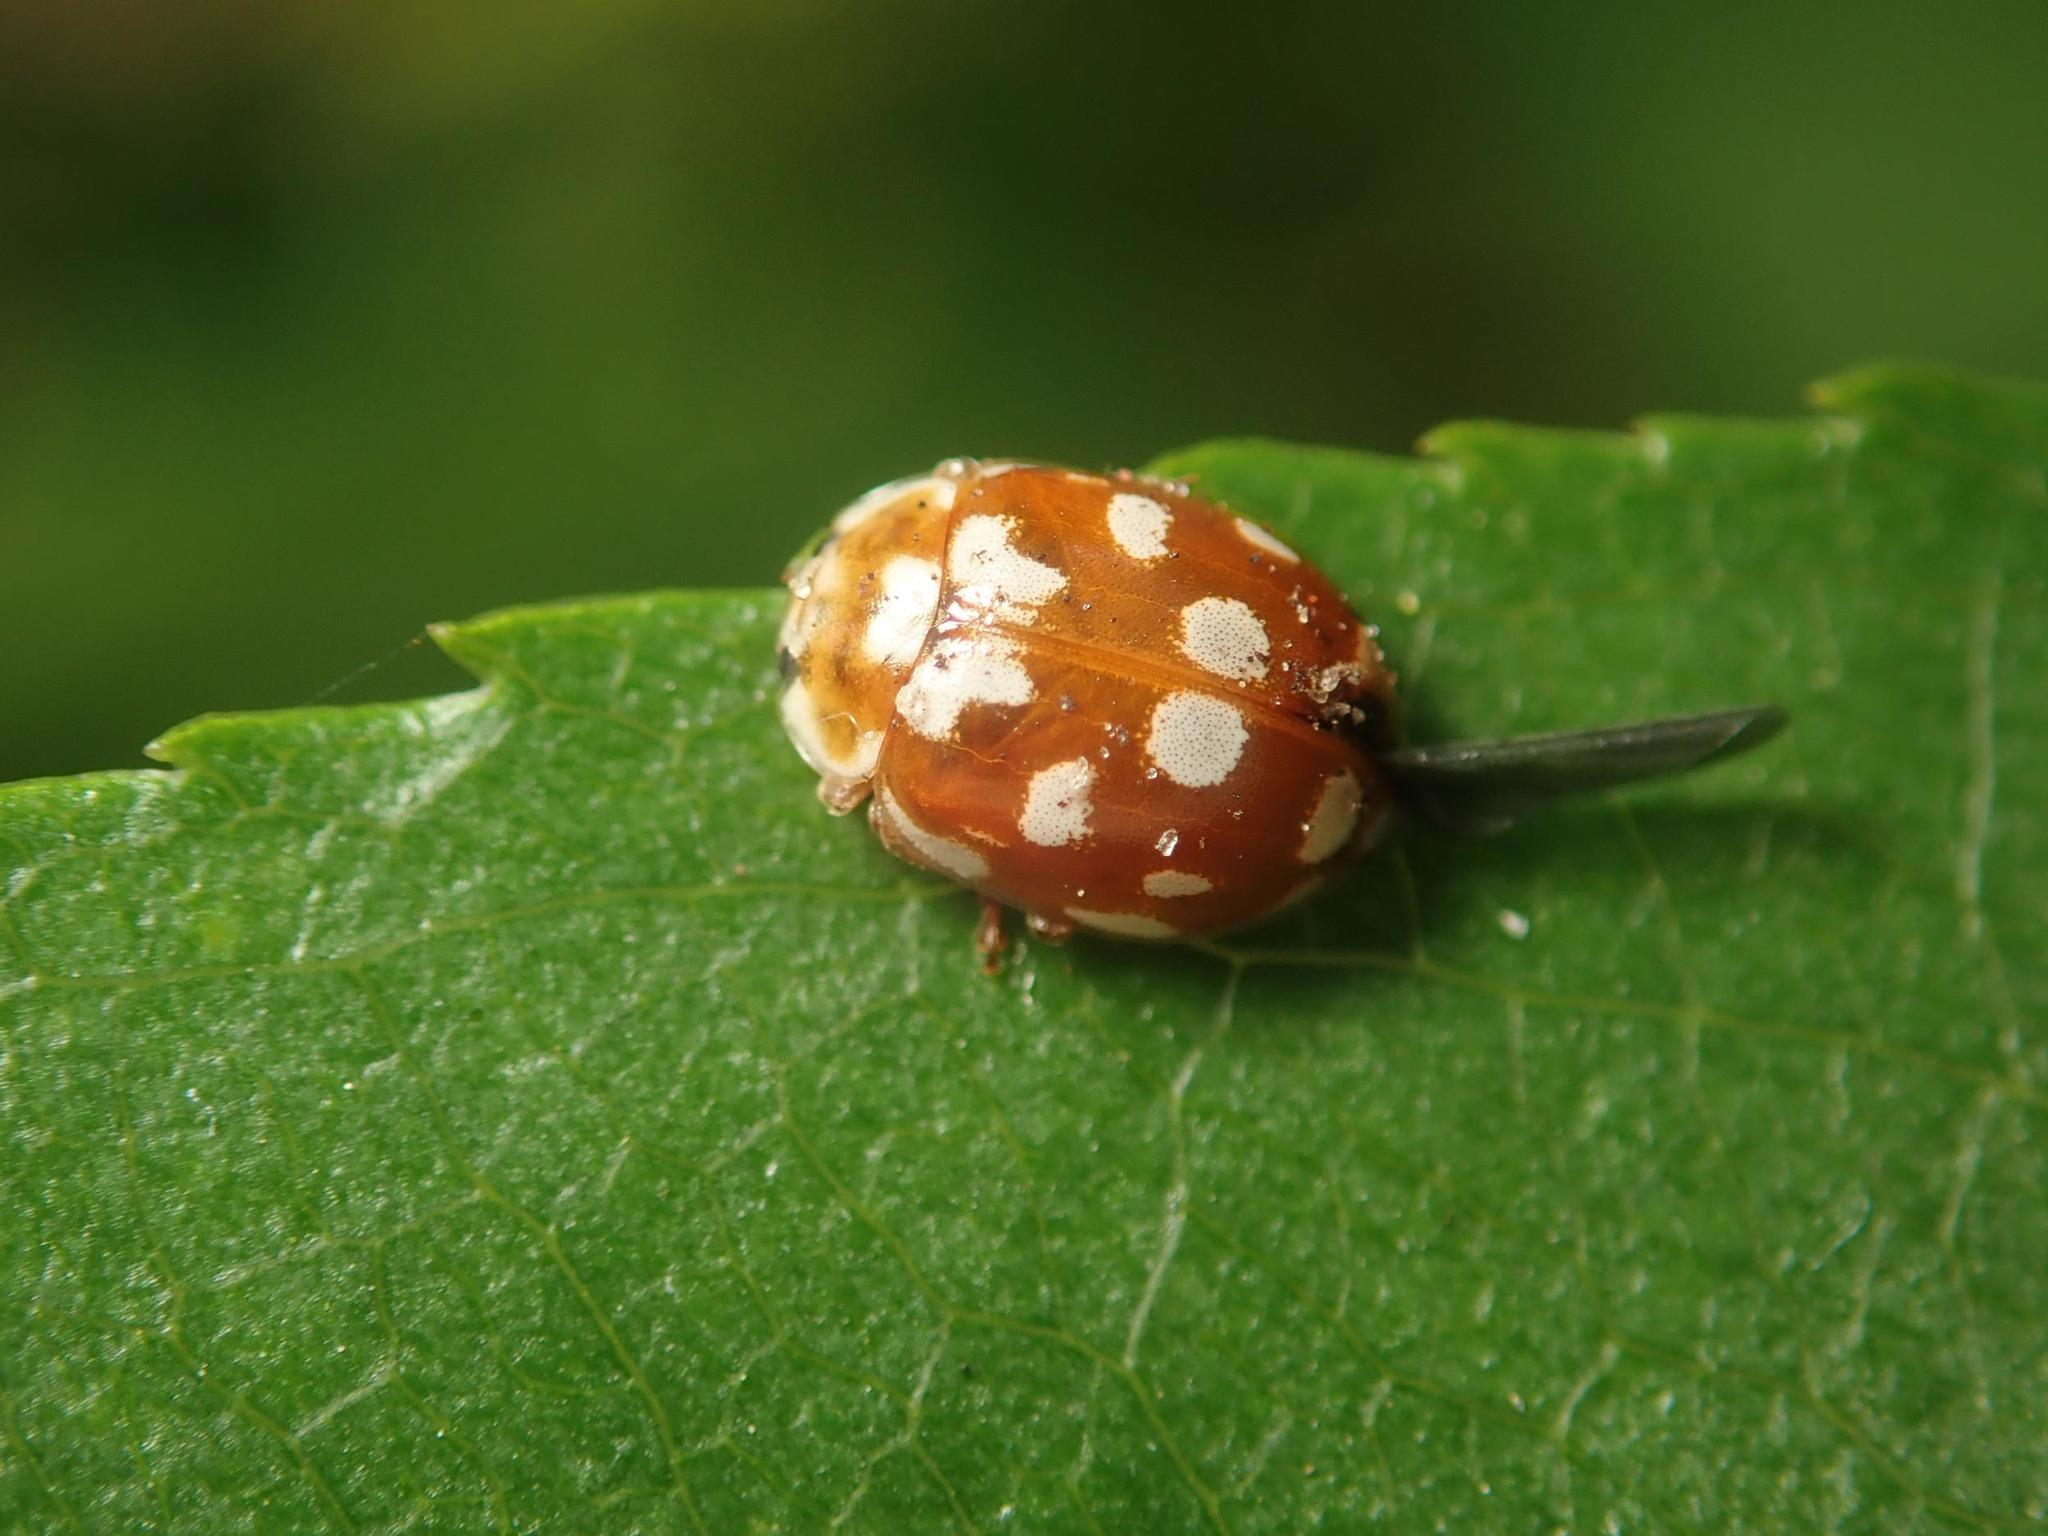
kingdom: Animalia
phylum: Arthropoda
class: Insecta
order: Coleoptera
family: Coccinellidae
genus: Myrrha
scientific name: Myrrha octodecimguttata
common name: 18-spot ladybird
